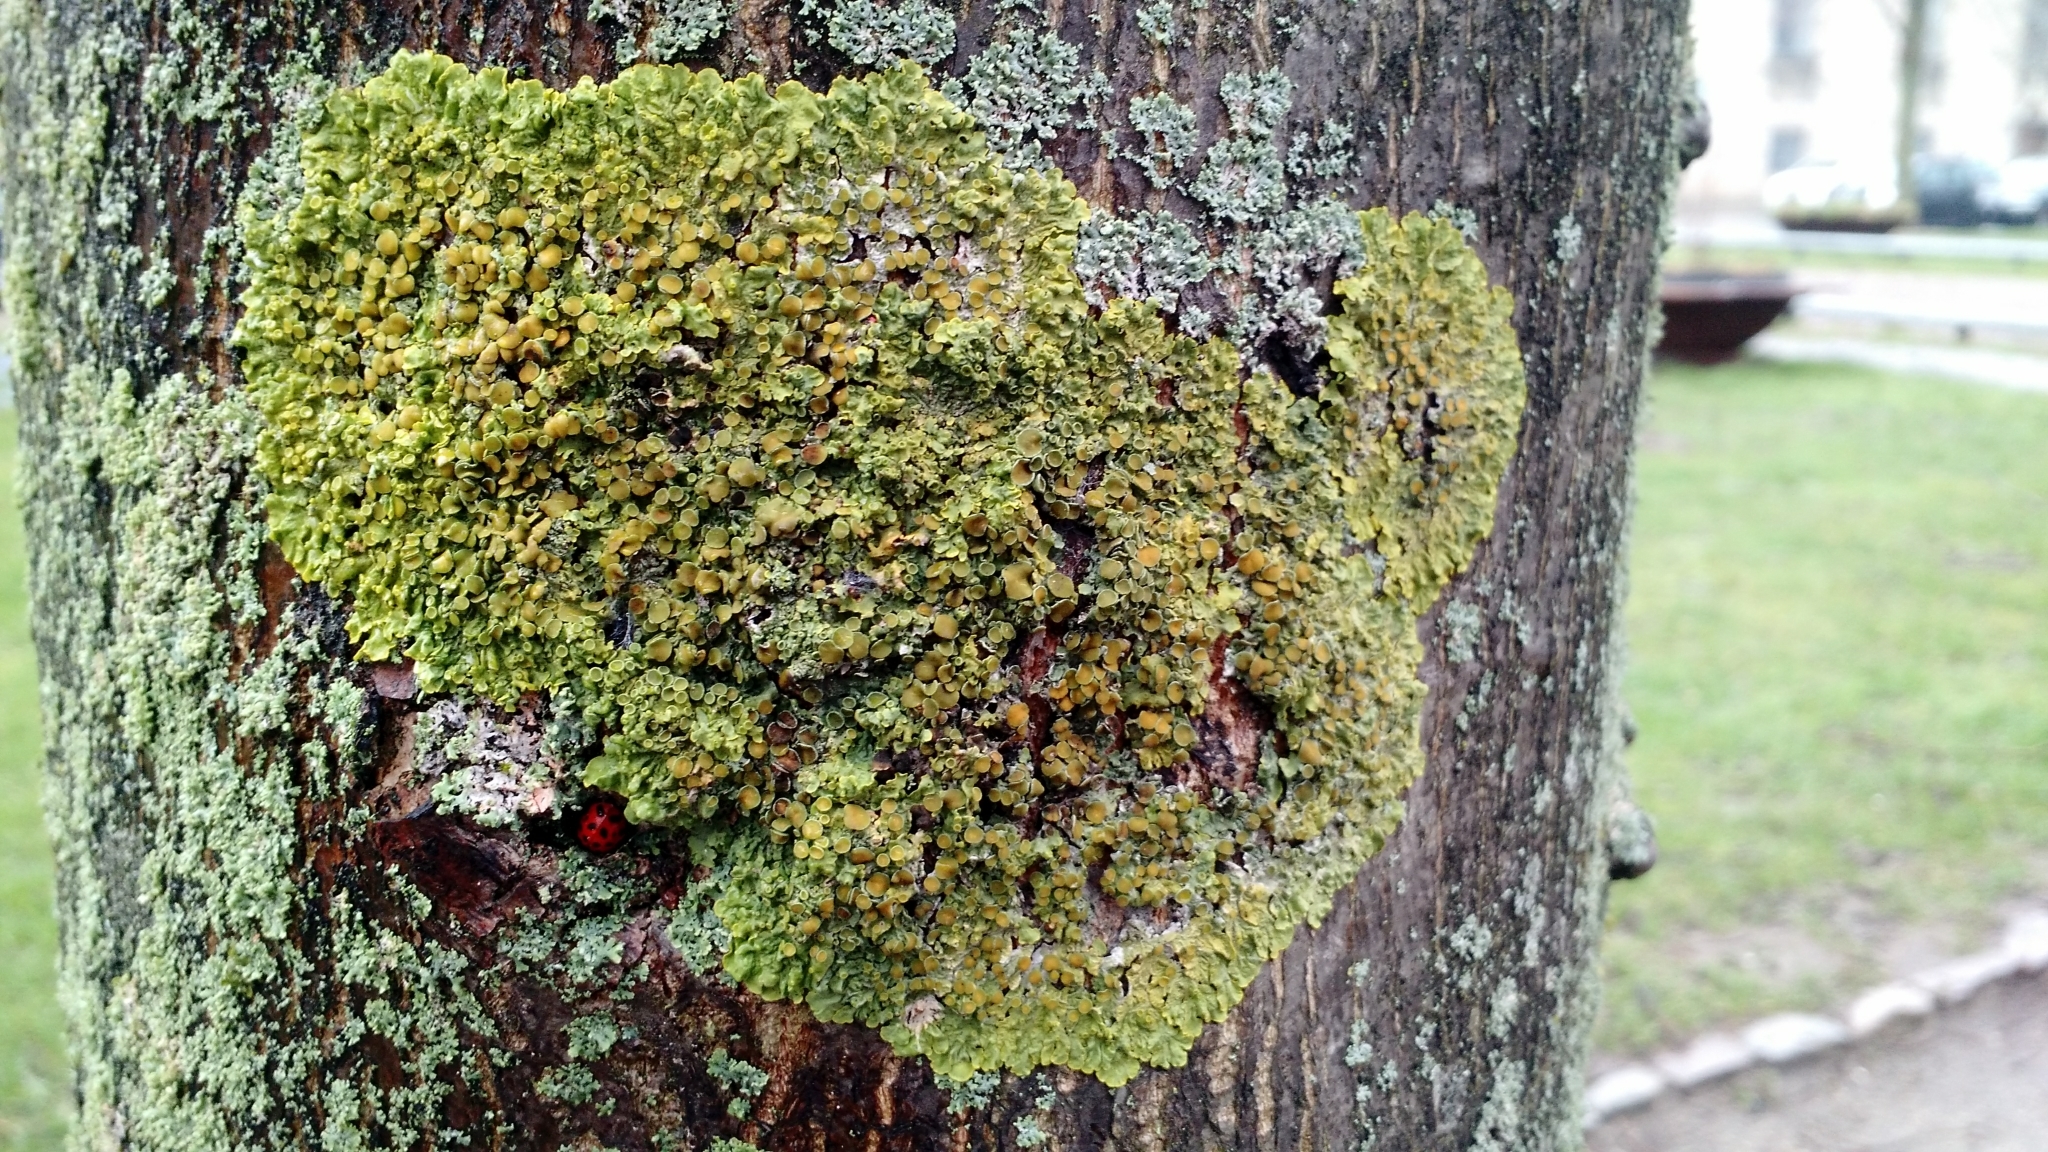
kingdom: Fungi
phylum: Ascomycota
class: Lecanoromycetes
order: Teloschistales
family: Teloschistaceae
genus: Xanthoria
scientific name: Xanthoria parietina
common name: Common orange lichen
